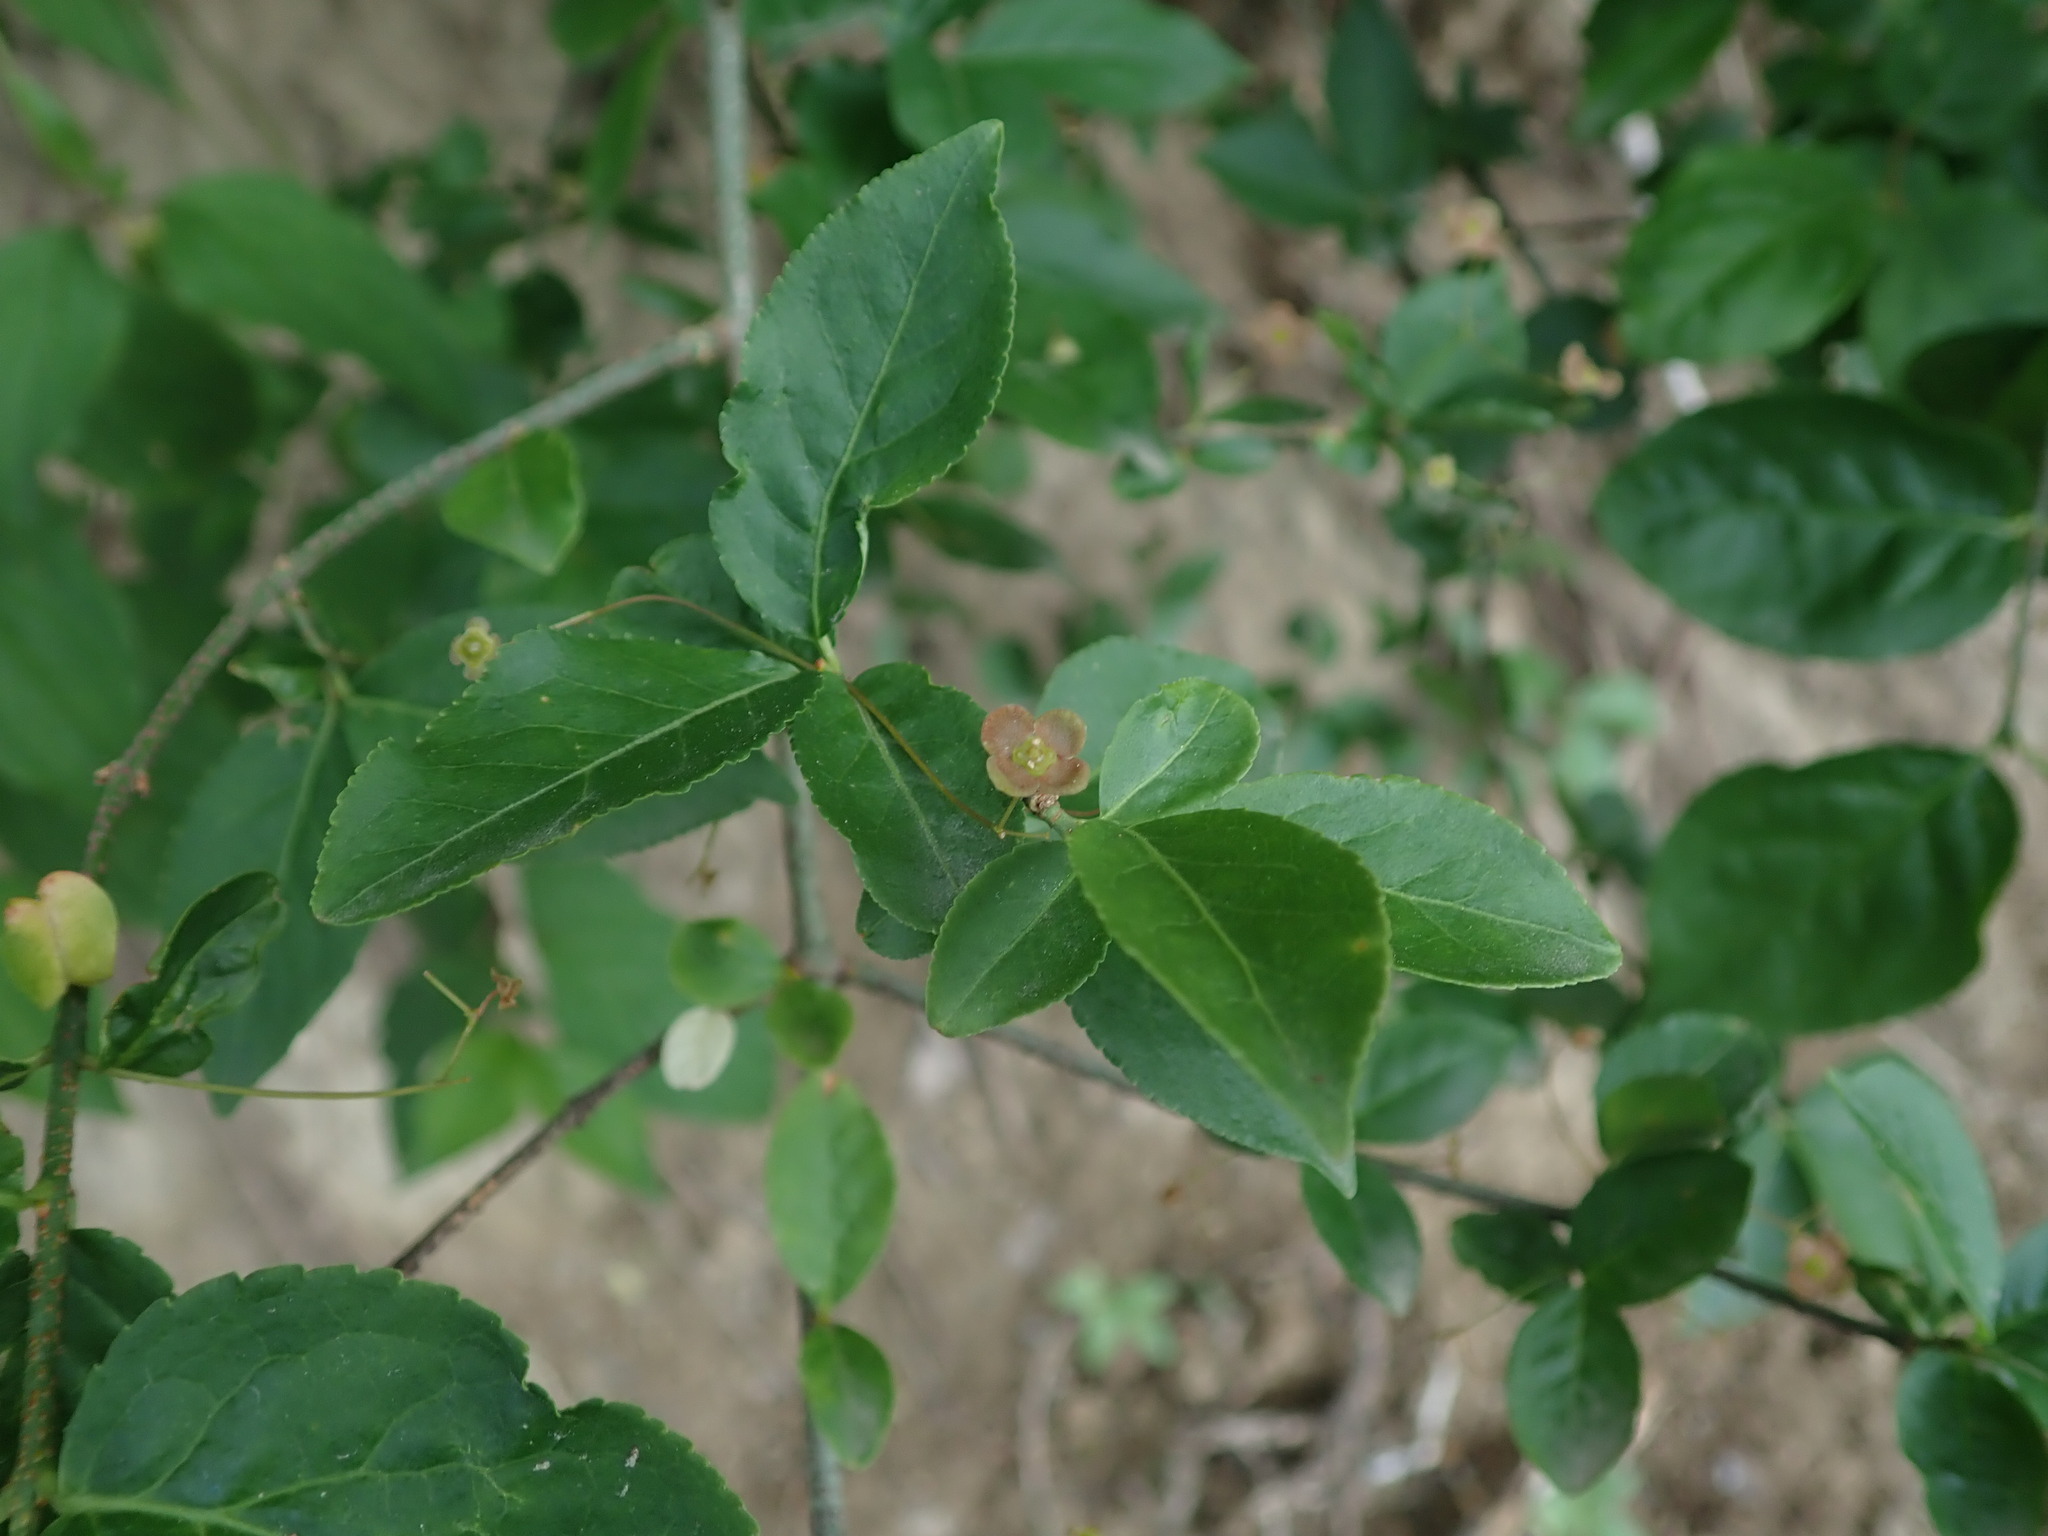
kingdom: Plantae
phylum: Tracheophyta
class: Magnoliopsida
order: Celastrales
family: Celastraceae
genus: Euonymus
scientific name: Euonymus verrucosus
